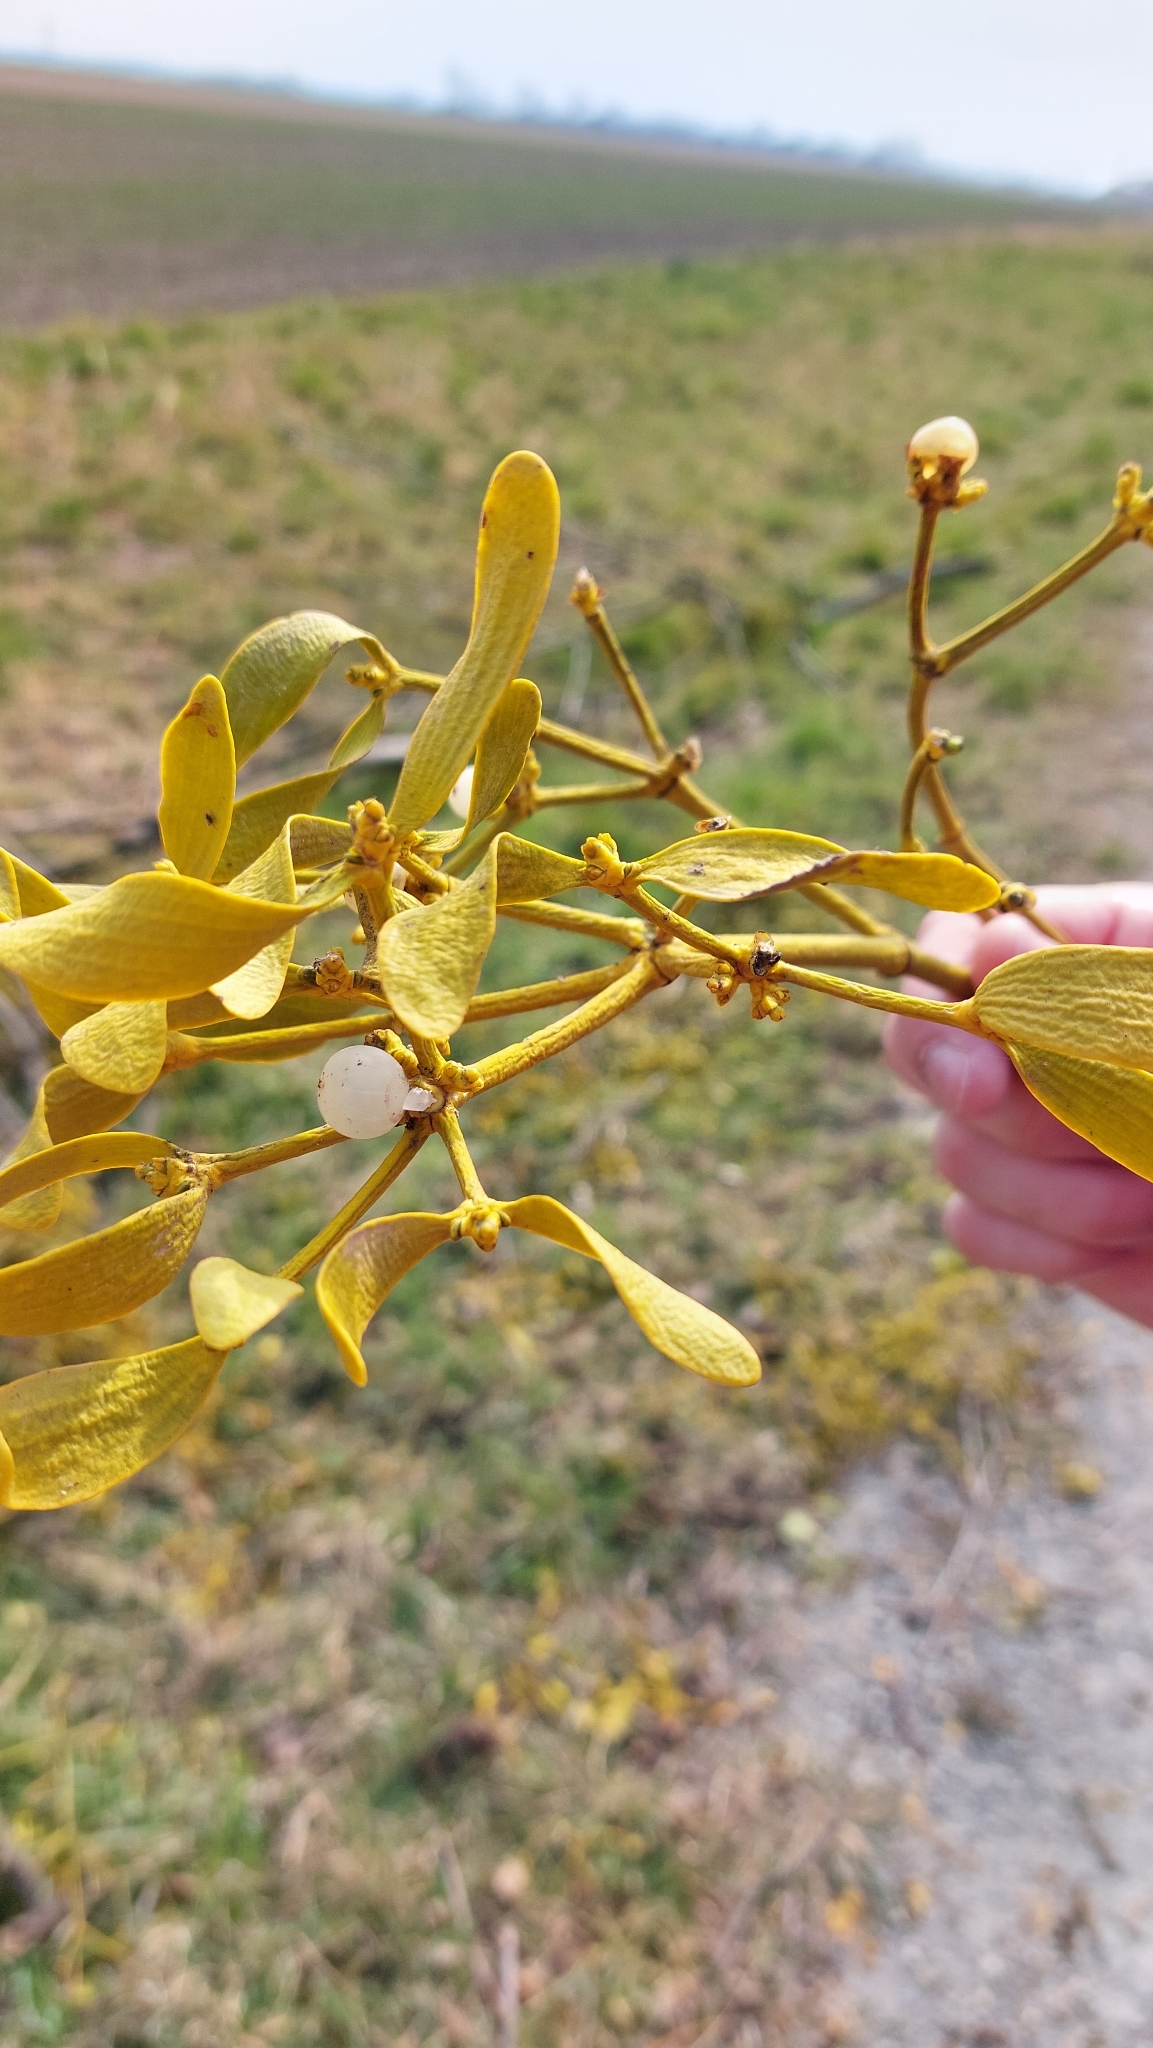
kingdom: Plantae
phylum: Tracheophyta
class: Magnoliopsida
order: Santalales
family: Viscaceae
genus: Viscum
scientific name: Viscum album
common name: Mistletoe
